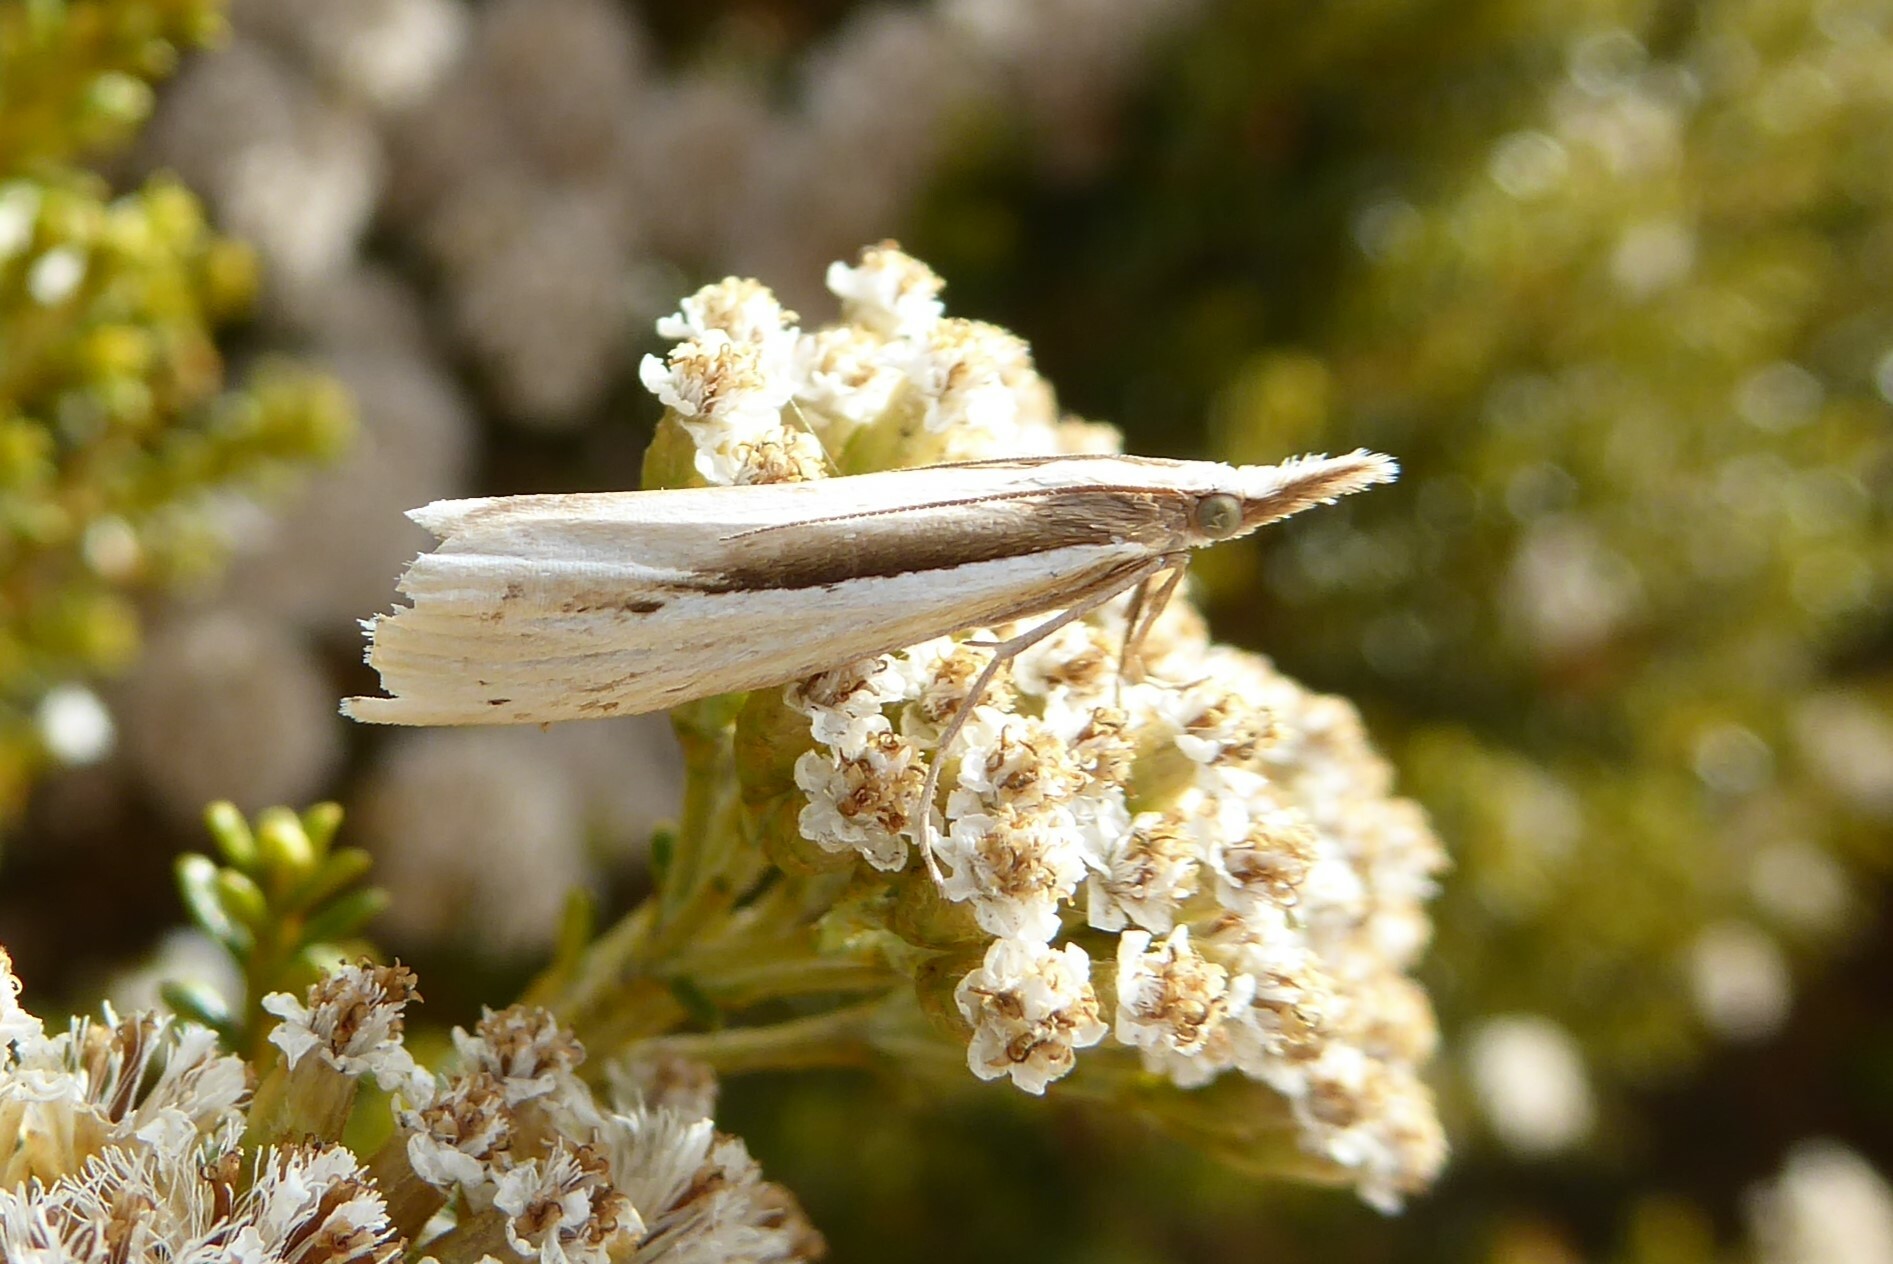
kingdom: Animalia
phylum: Arthropoda
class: Insecta
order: Lepidoptera
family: Crambidae
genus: Orocrambus
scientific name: Orocrambus ramosellus
